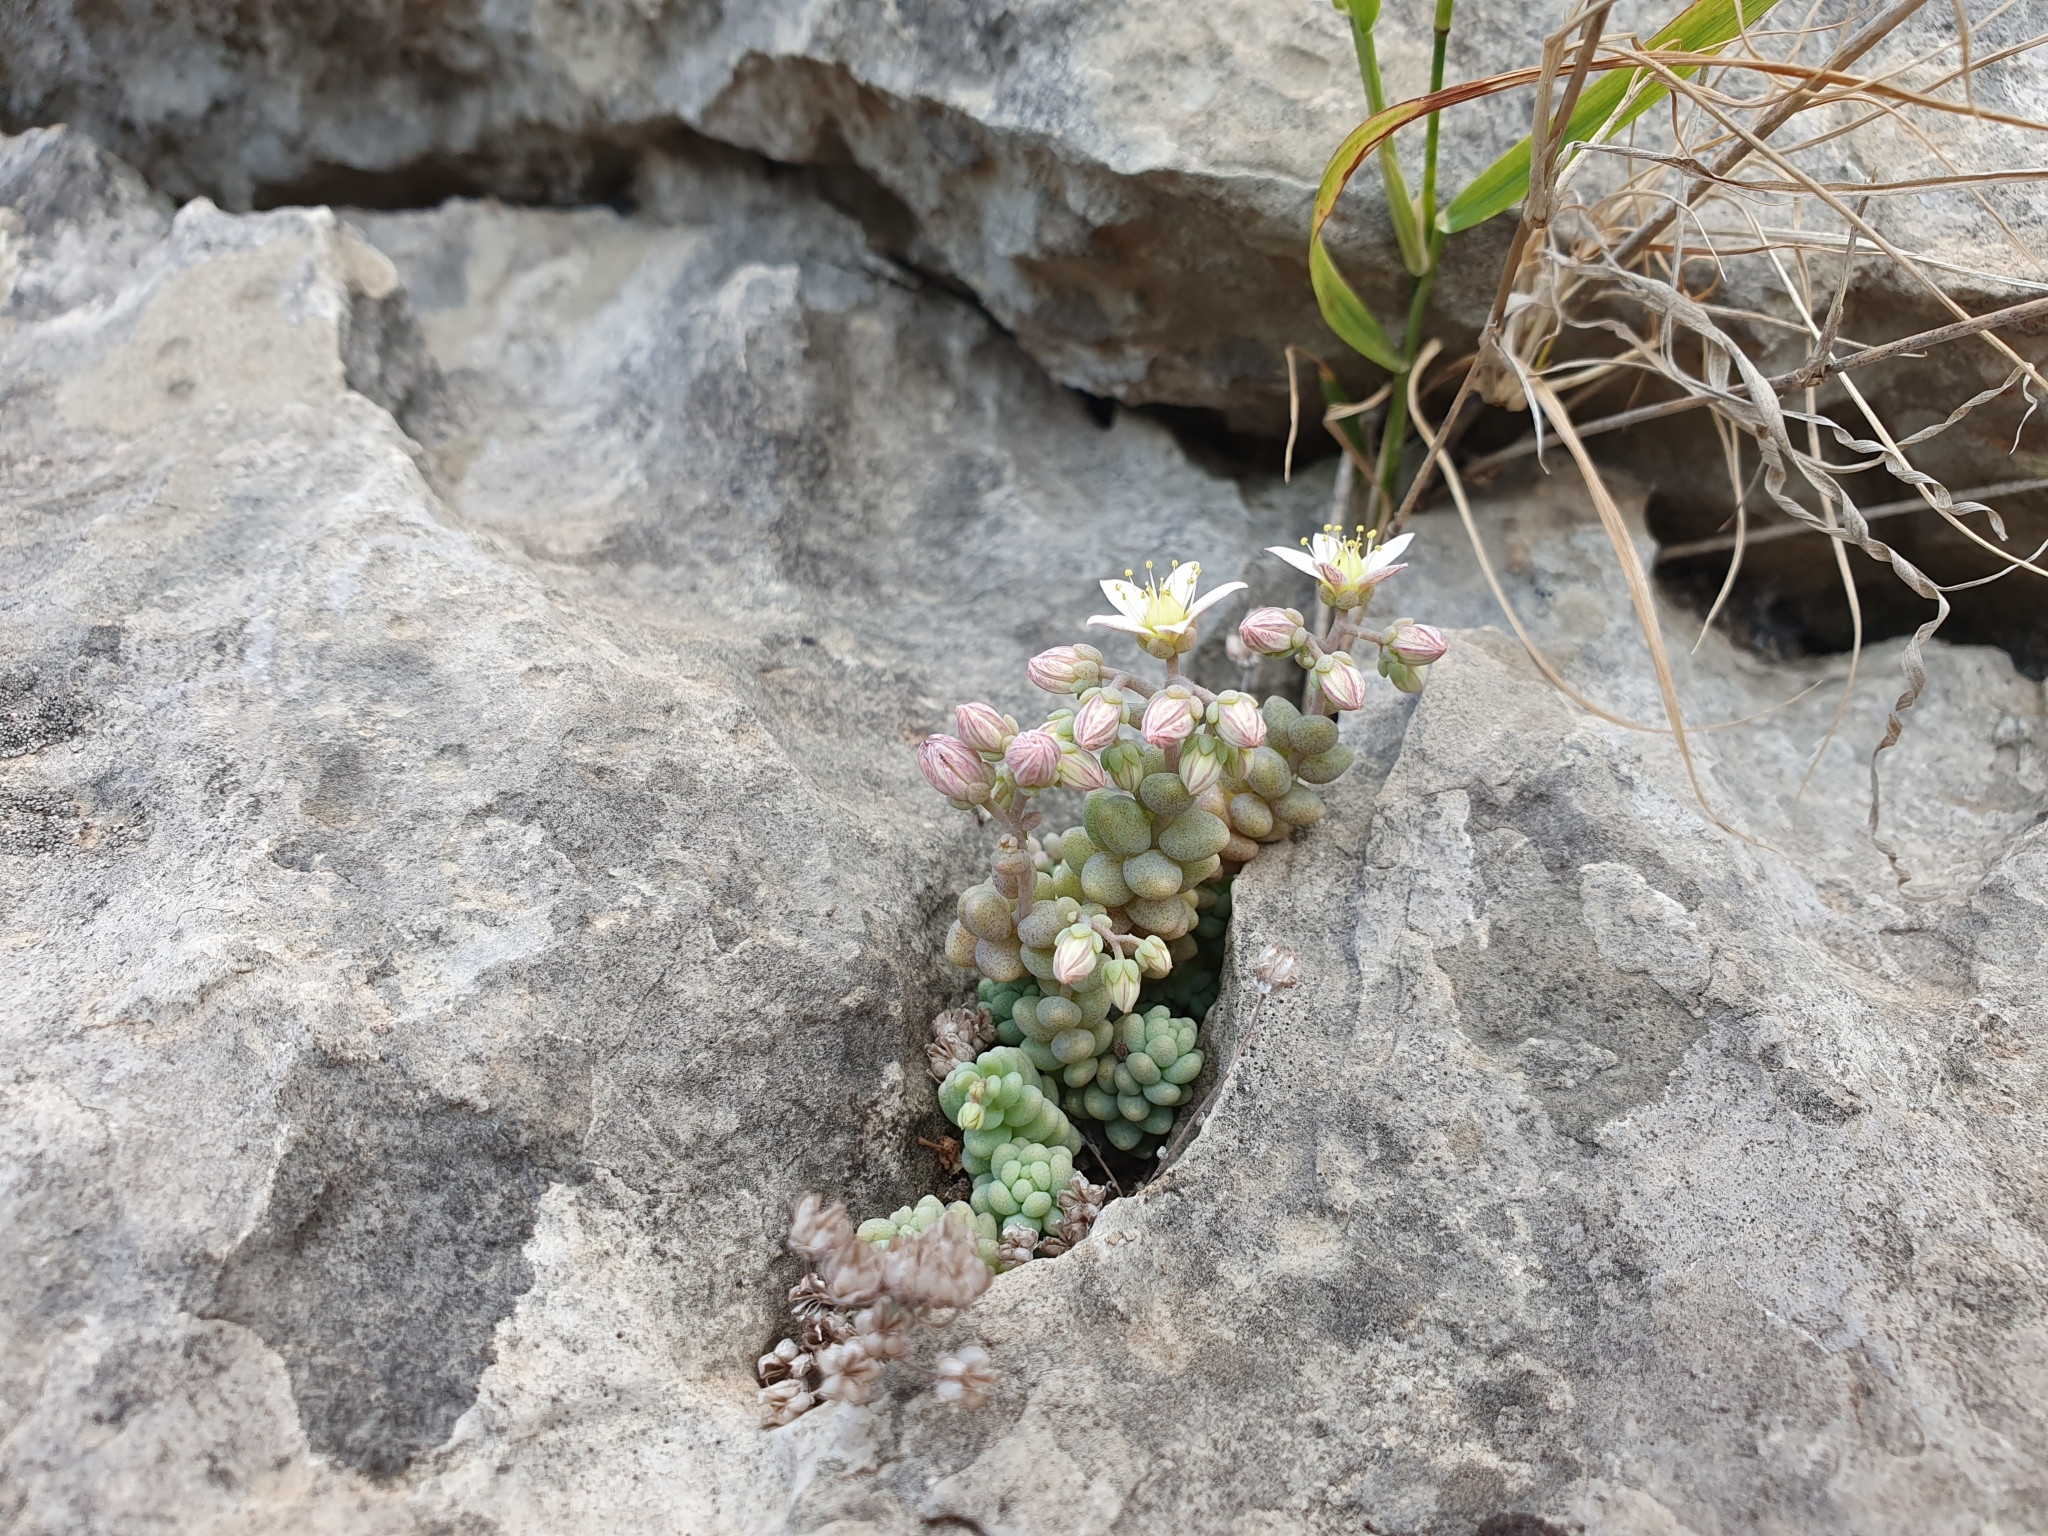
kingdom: Plantae
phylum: Tracheophyta
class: Magnoliopsida
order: Saxifragales
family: Crassulaceae
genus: Sedum
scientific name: Sedum dasyphyllum
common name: Thick-leaf stonecrop
